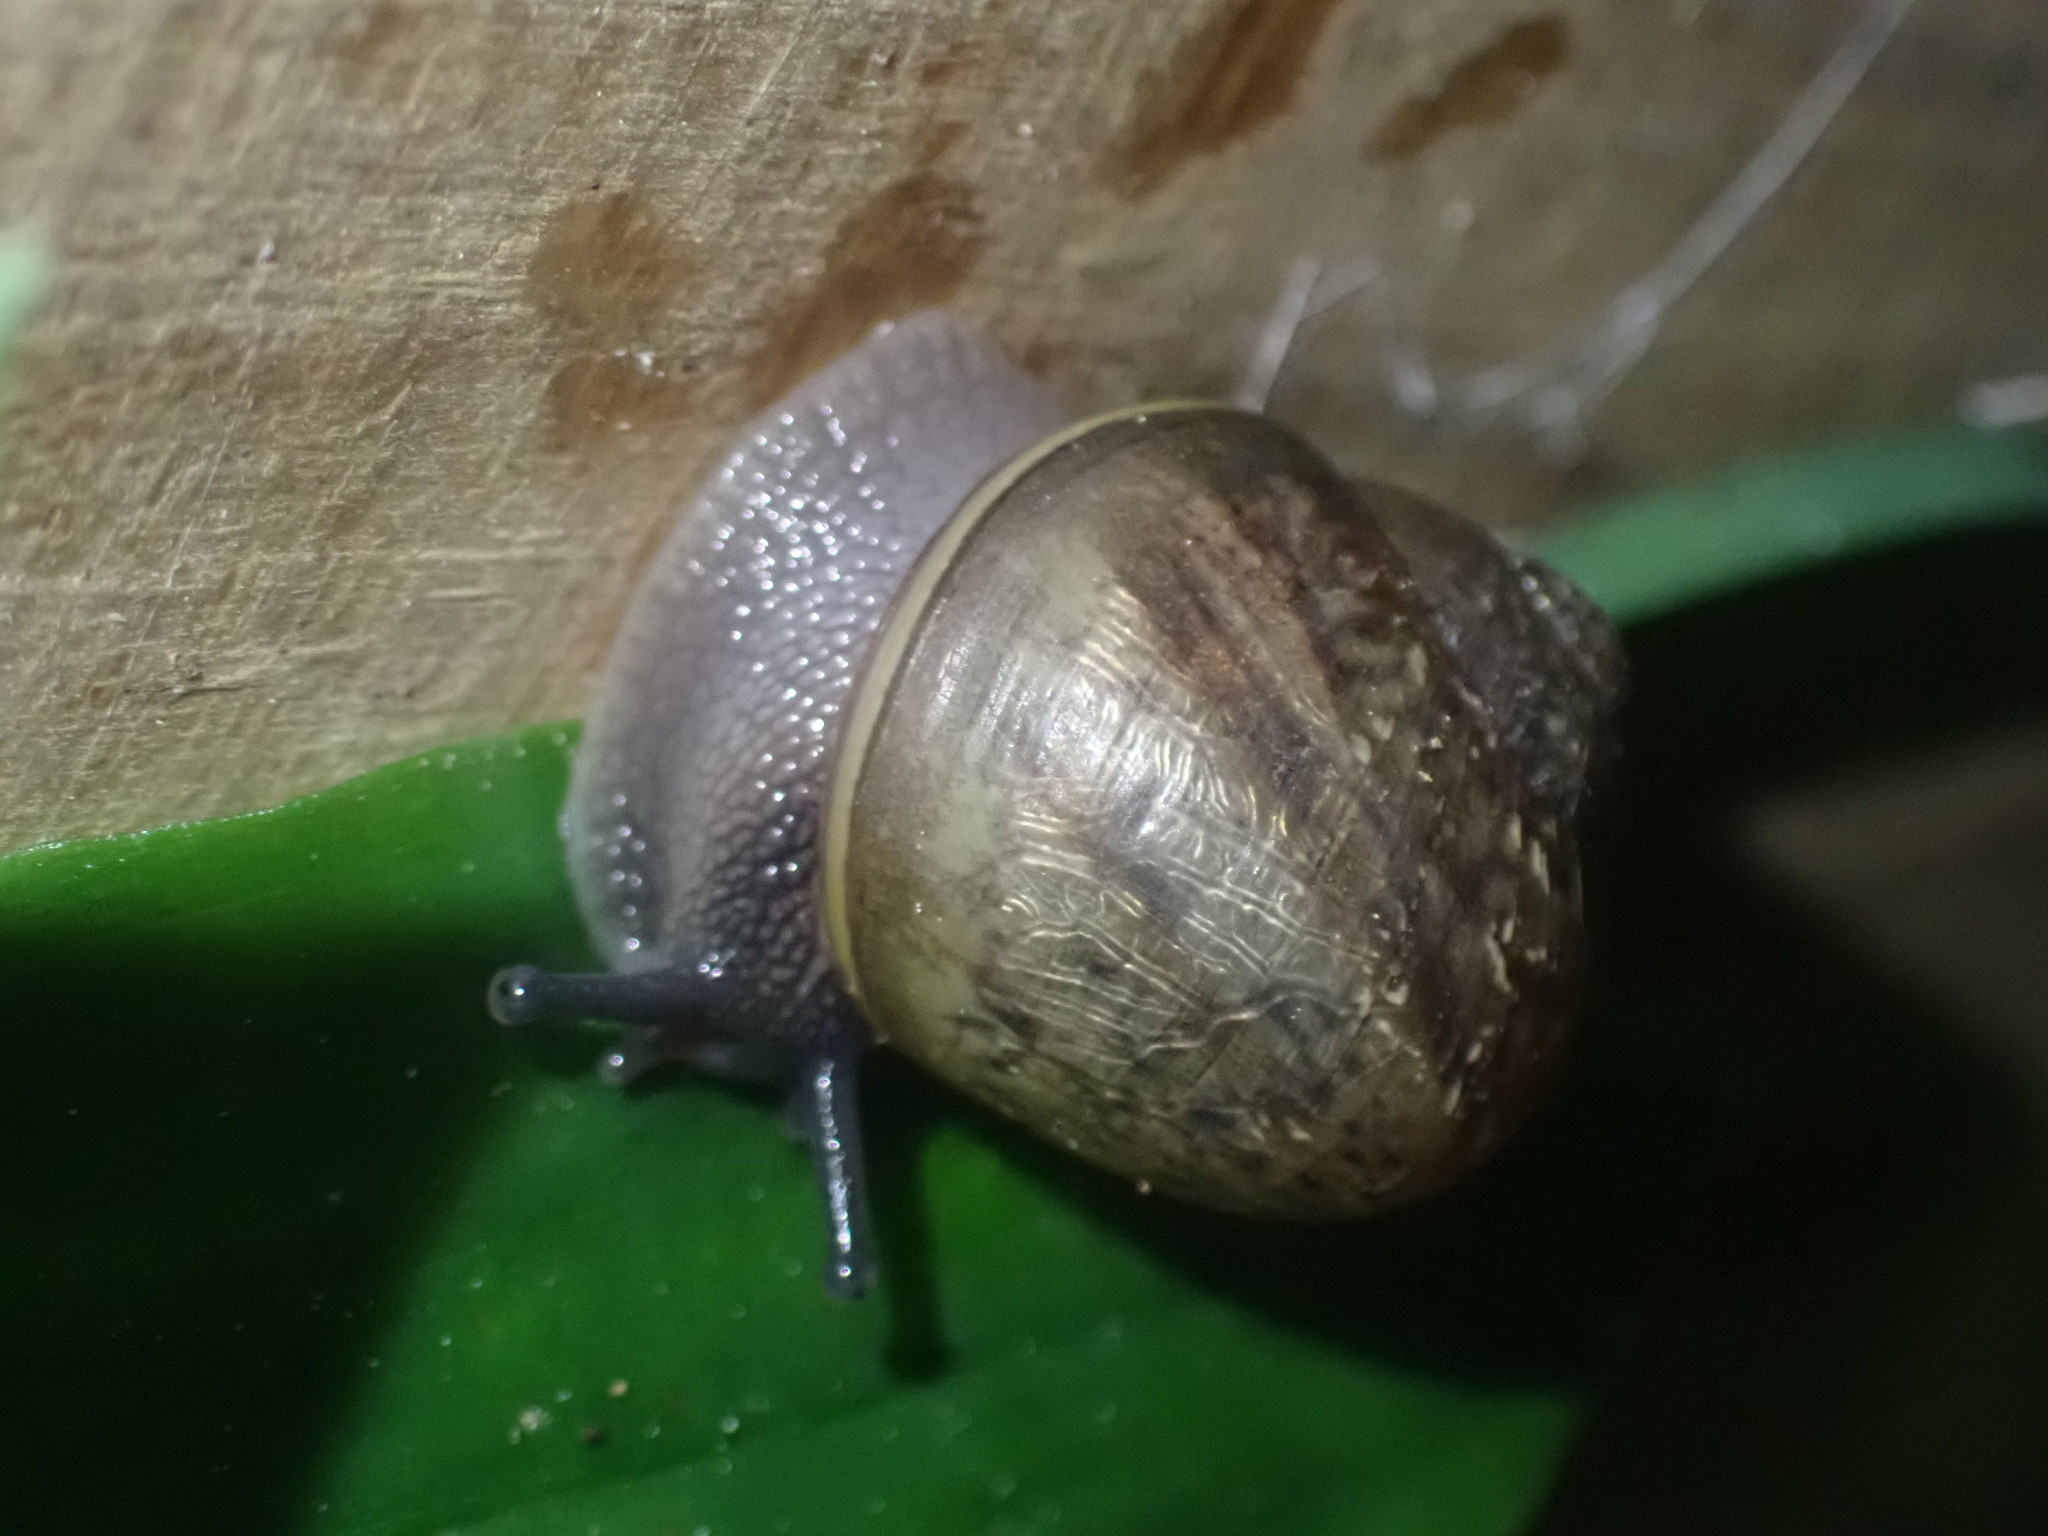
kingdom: Animalia
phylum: Mollusca
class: Gastropoda
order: Stylommatophora
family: Helicidae
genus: Cornu
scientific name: Cornu aspersum
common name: Brown garden snail
